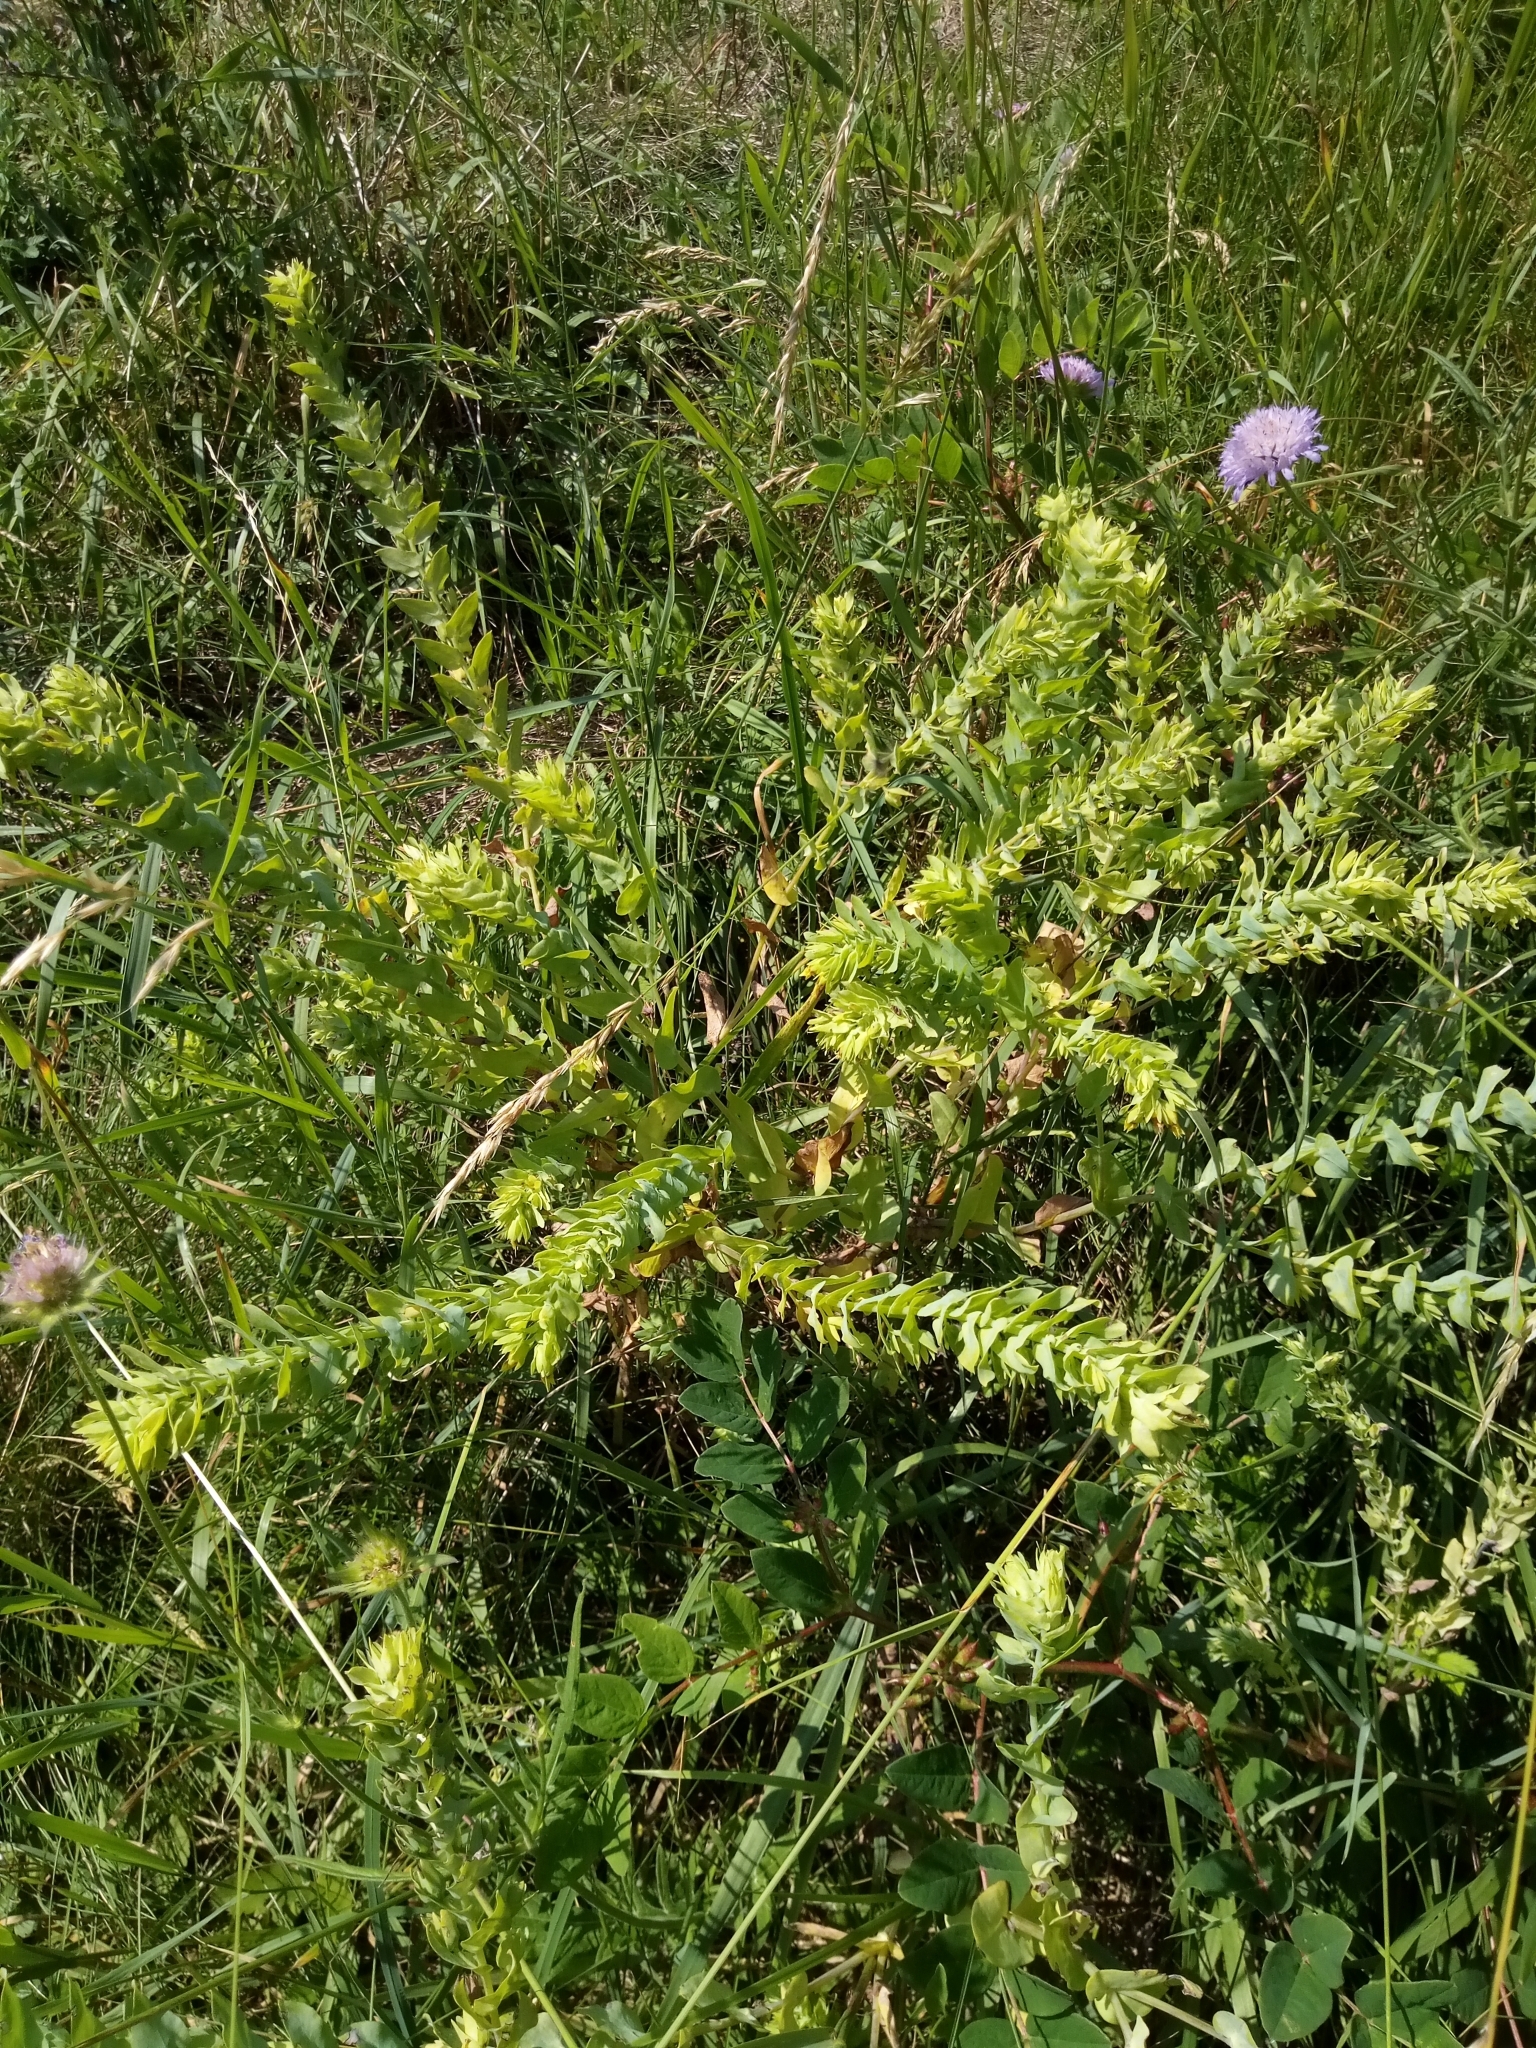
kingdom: Plantae
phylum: Tracheophyta
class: Magnoliopsida
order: Boraginales
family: Boraginaceae
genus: Cerinthe
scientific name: Cerinthe minor
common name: Lesser honeywort
